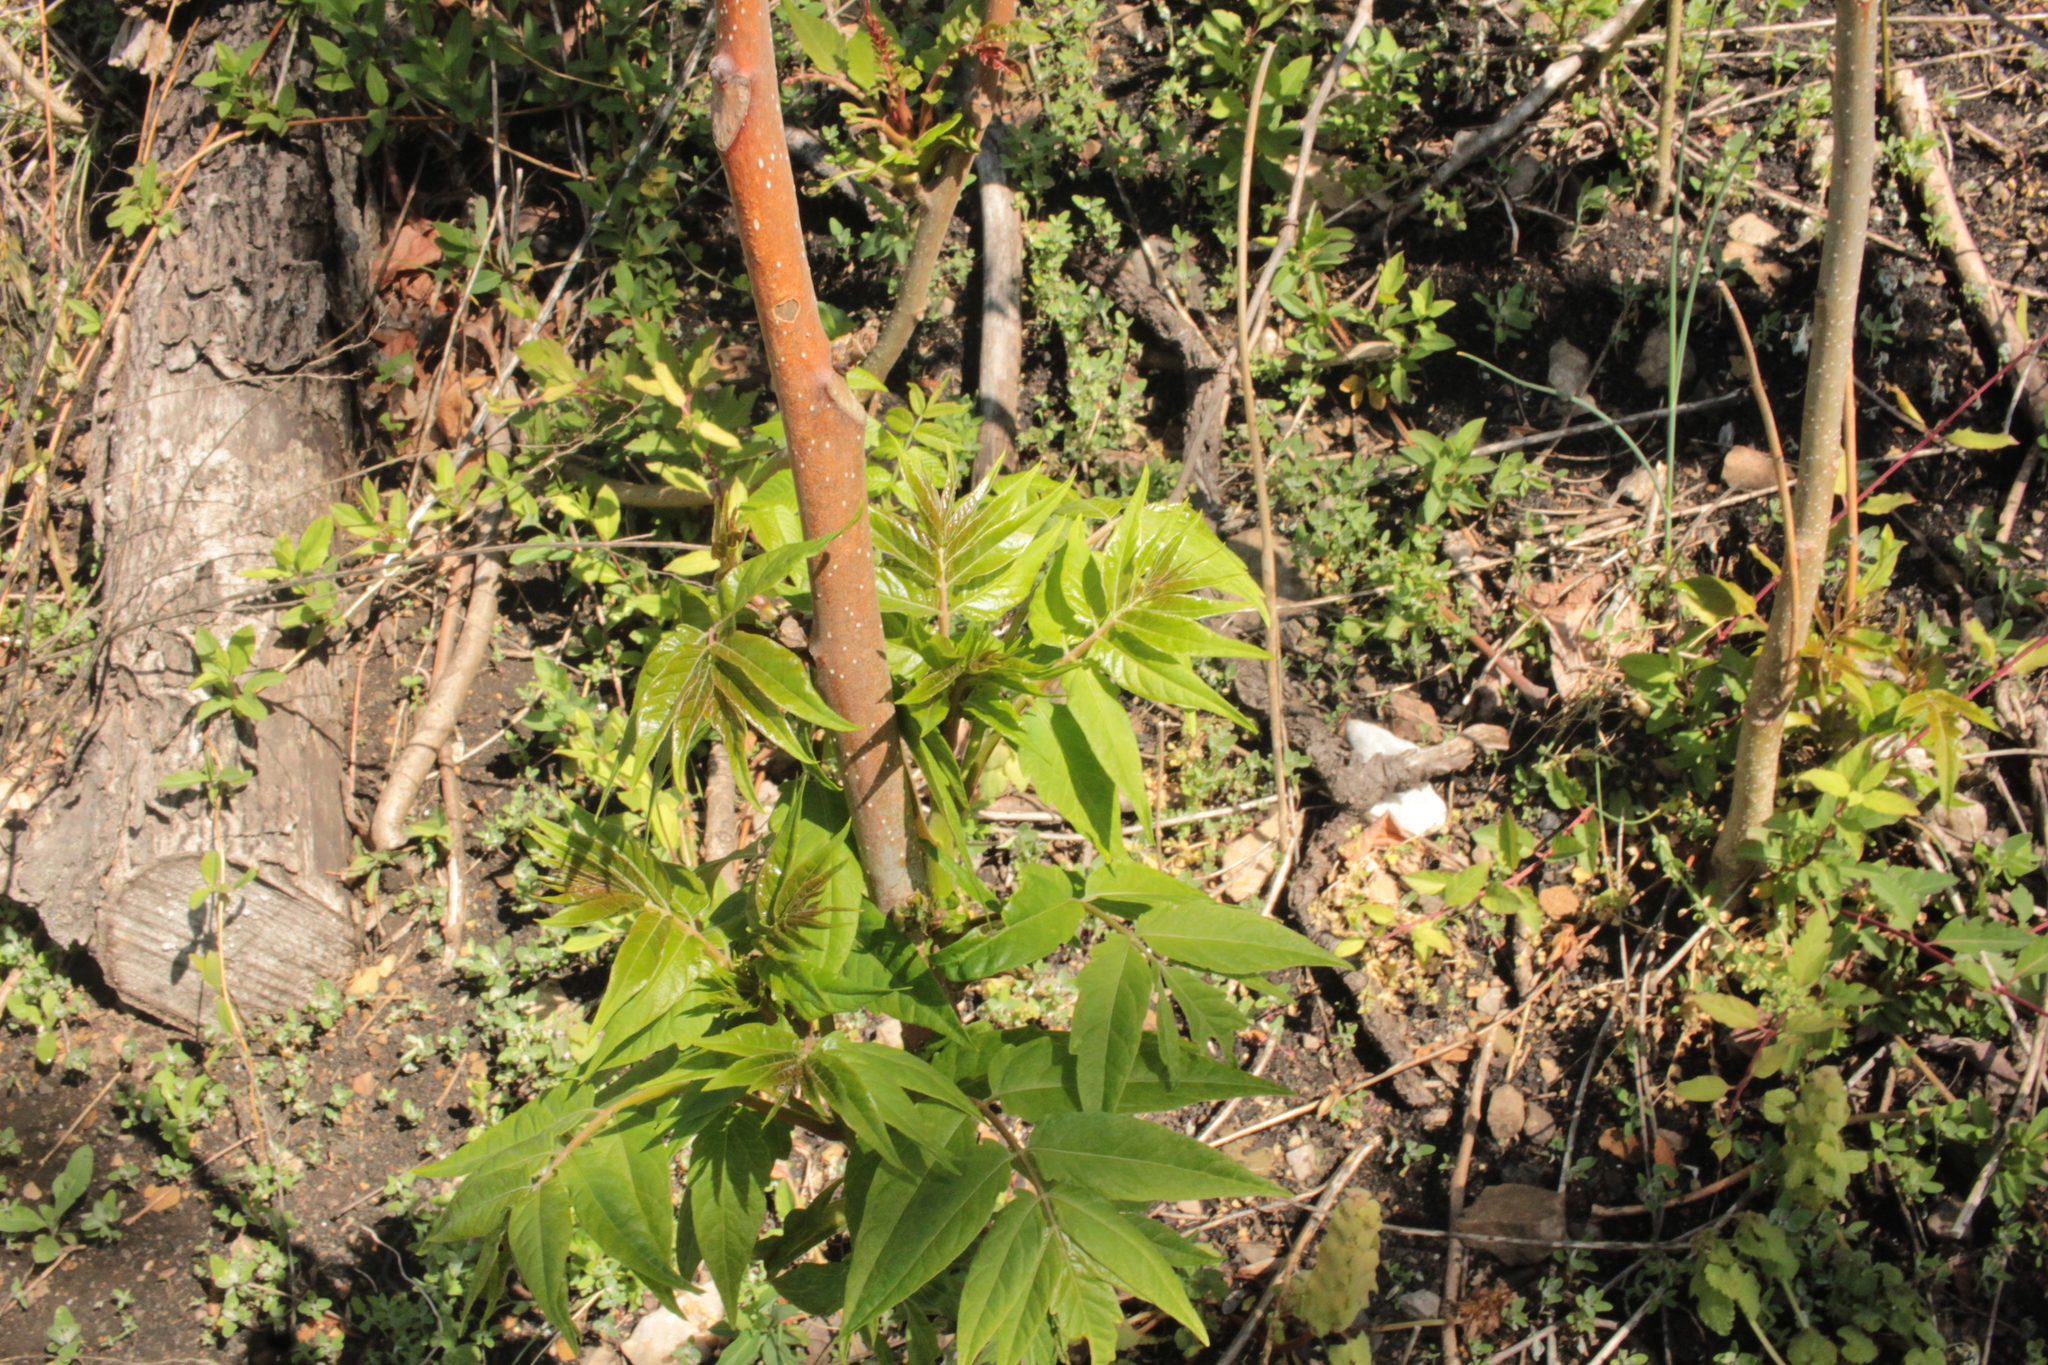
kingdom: Plantae
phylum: Tracheophyta
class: Magnoliopsida
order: Sapindales
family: Simaroubaceae
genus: Ailanthus
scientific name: Ailanthus altissima
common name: Tree-of-heaven
